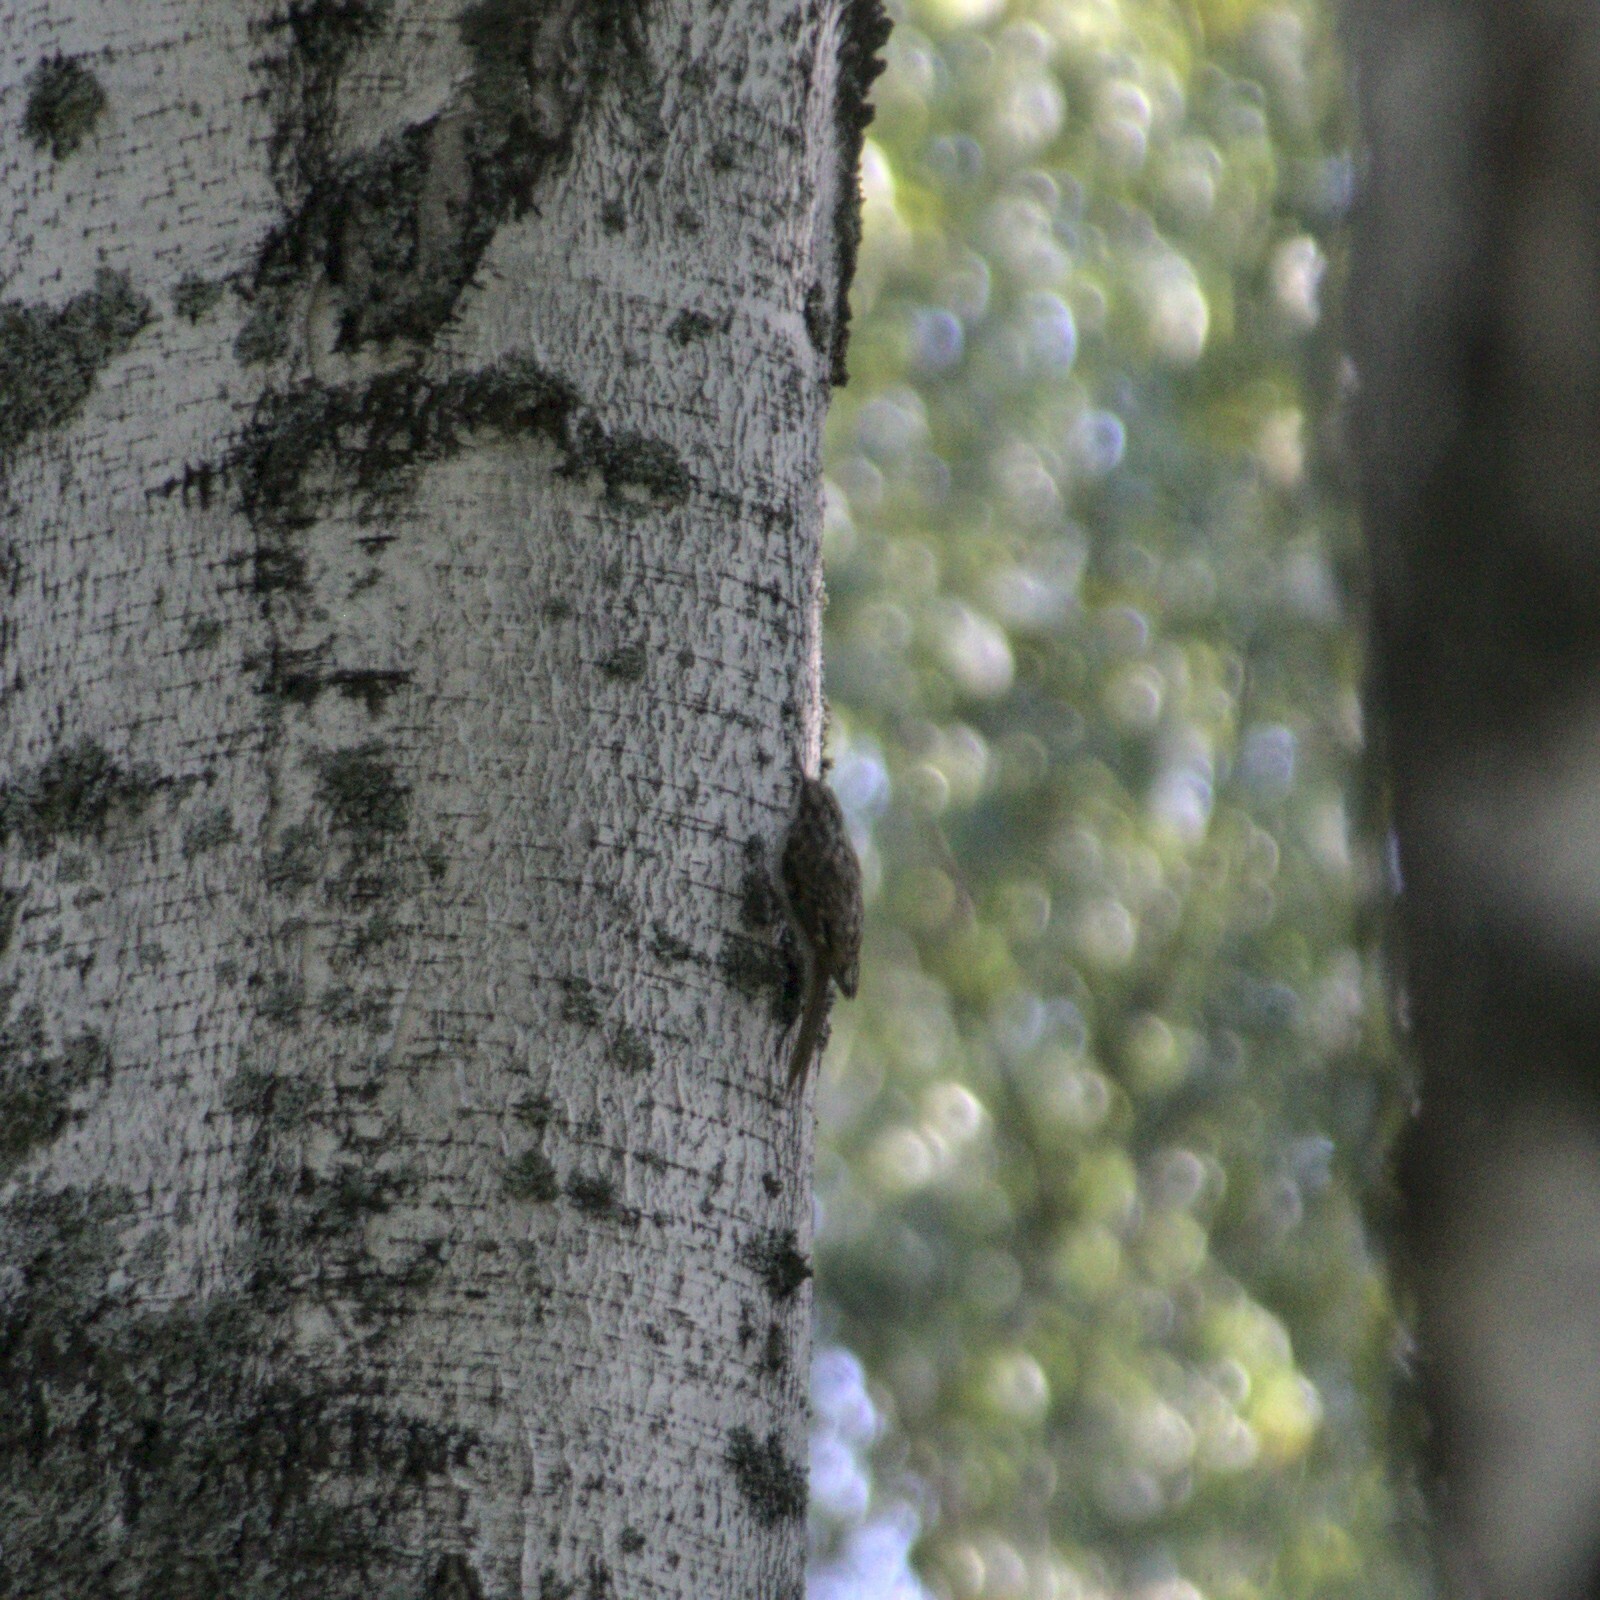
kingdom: Animalia
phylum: Chordata
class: Aves
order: Passeriformes
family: Certhiidae
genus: Certhia
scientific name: Certhia familiaris
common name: Eurasian treecreeper
